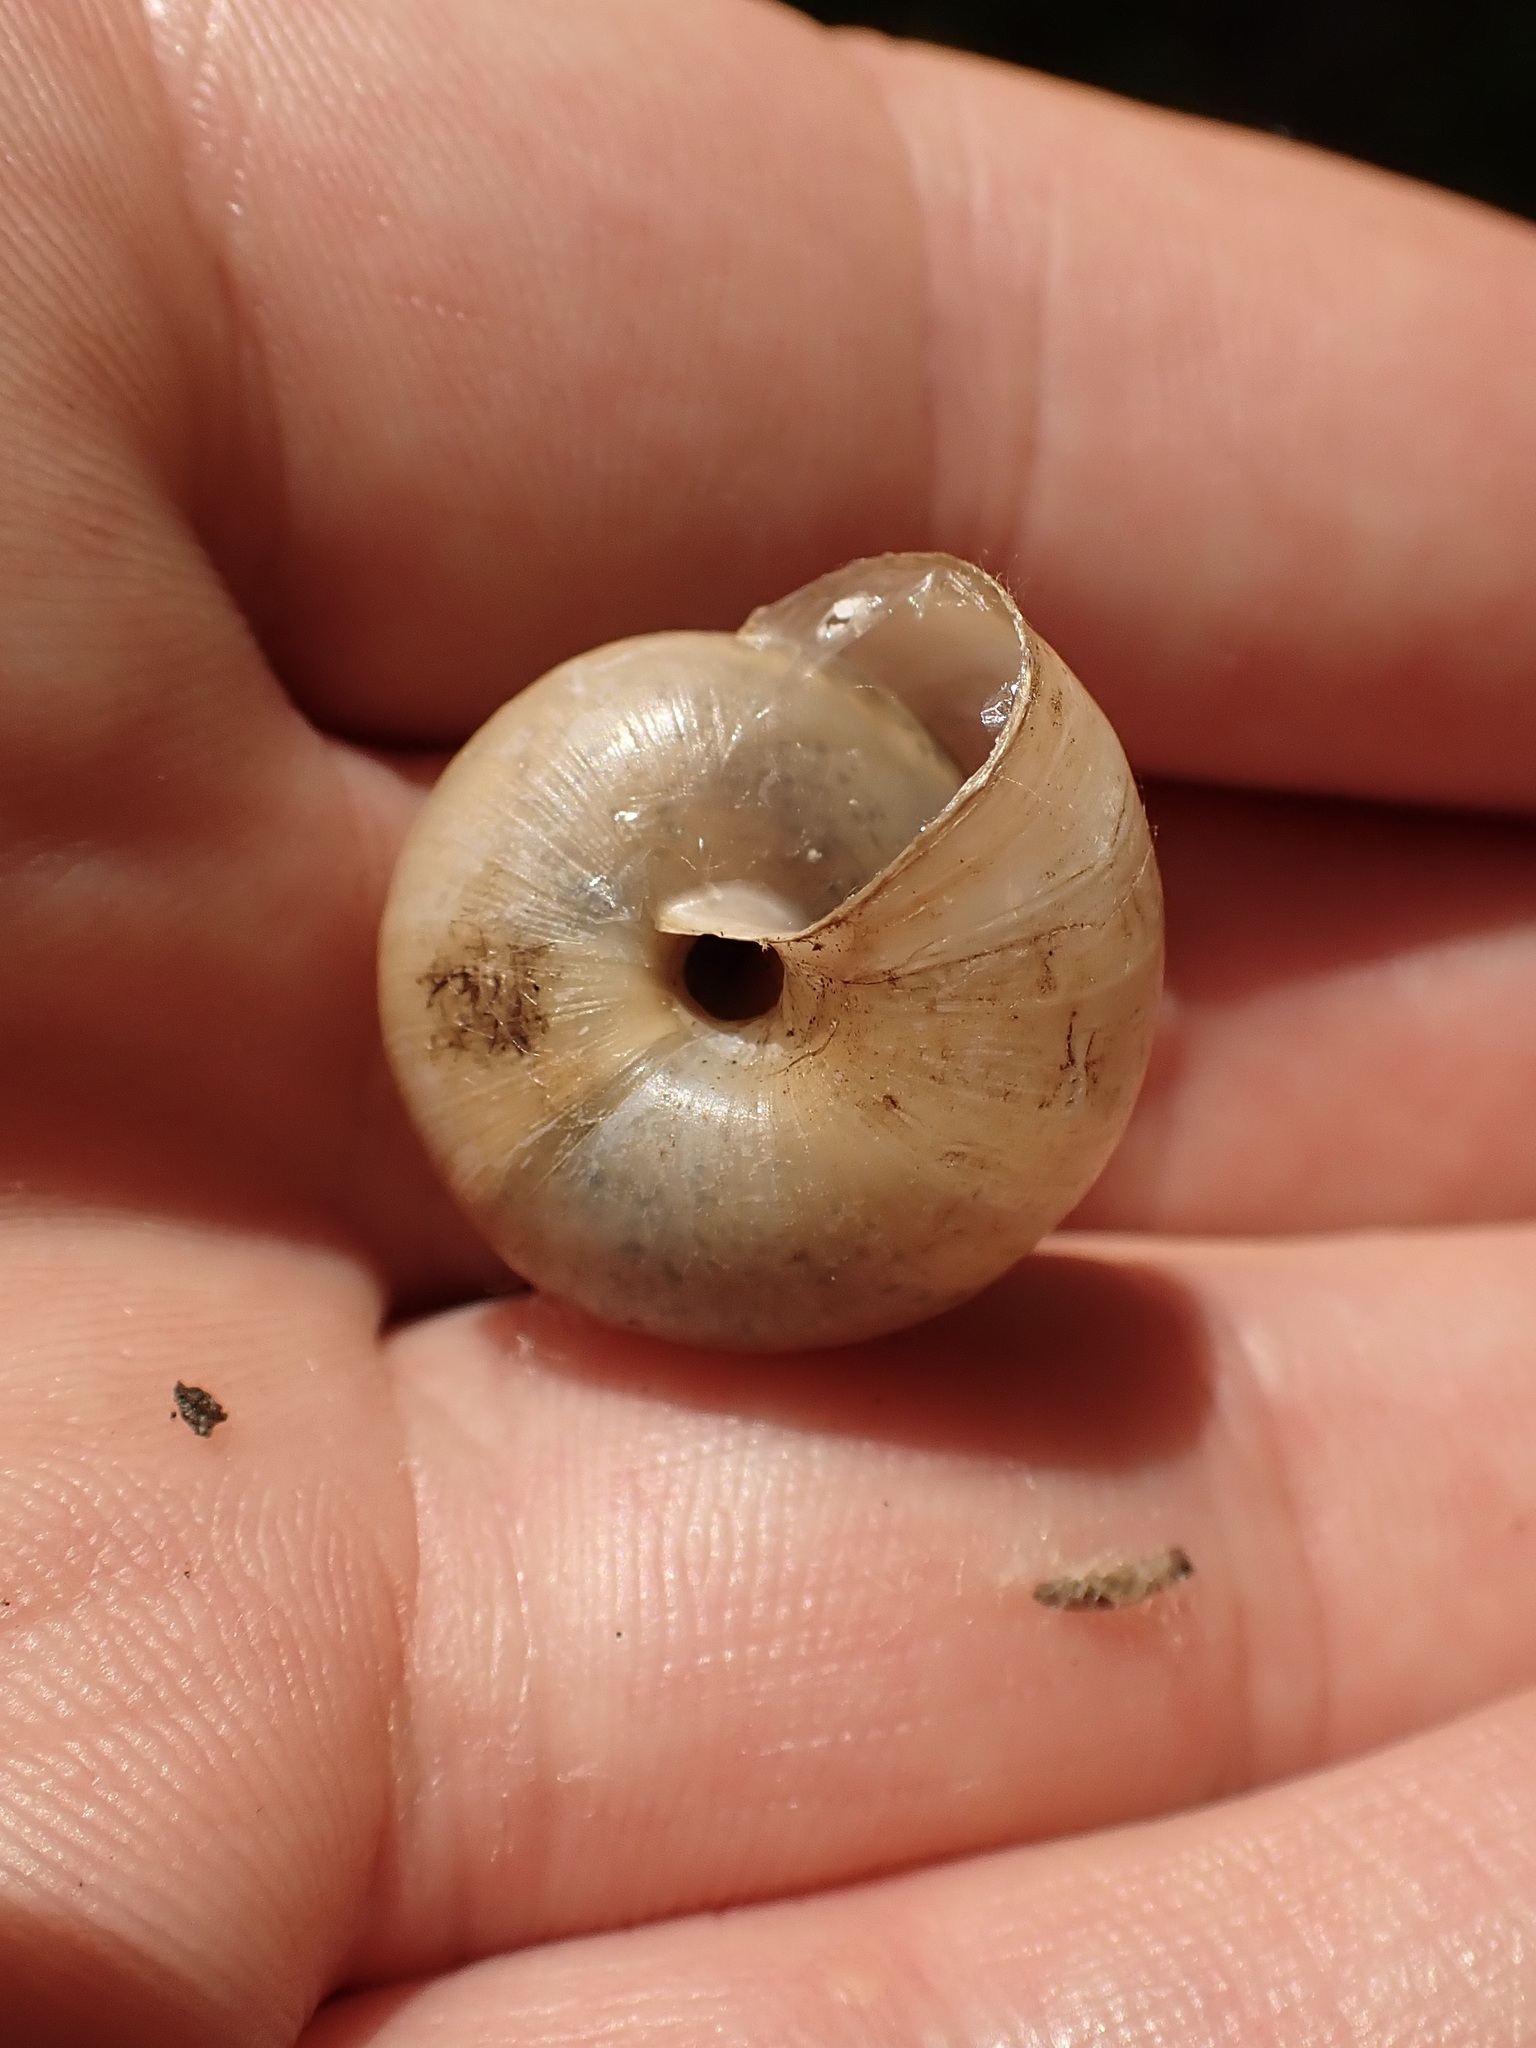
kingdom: Animalia
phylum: Mollusca
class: Gastropoda
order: Stylommatophora
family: Camaenidae
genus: Fruticicola
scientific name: Fruticicola fruticum
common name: Bush snail
